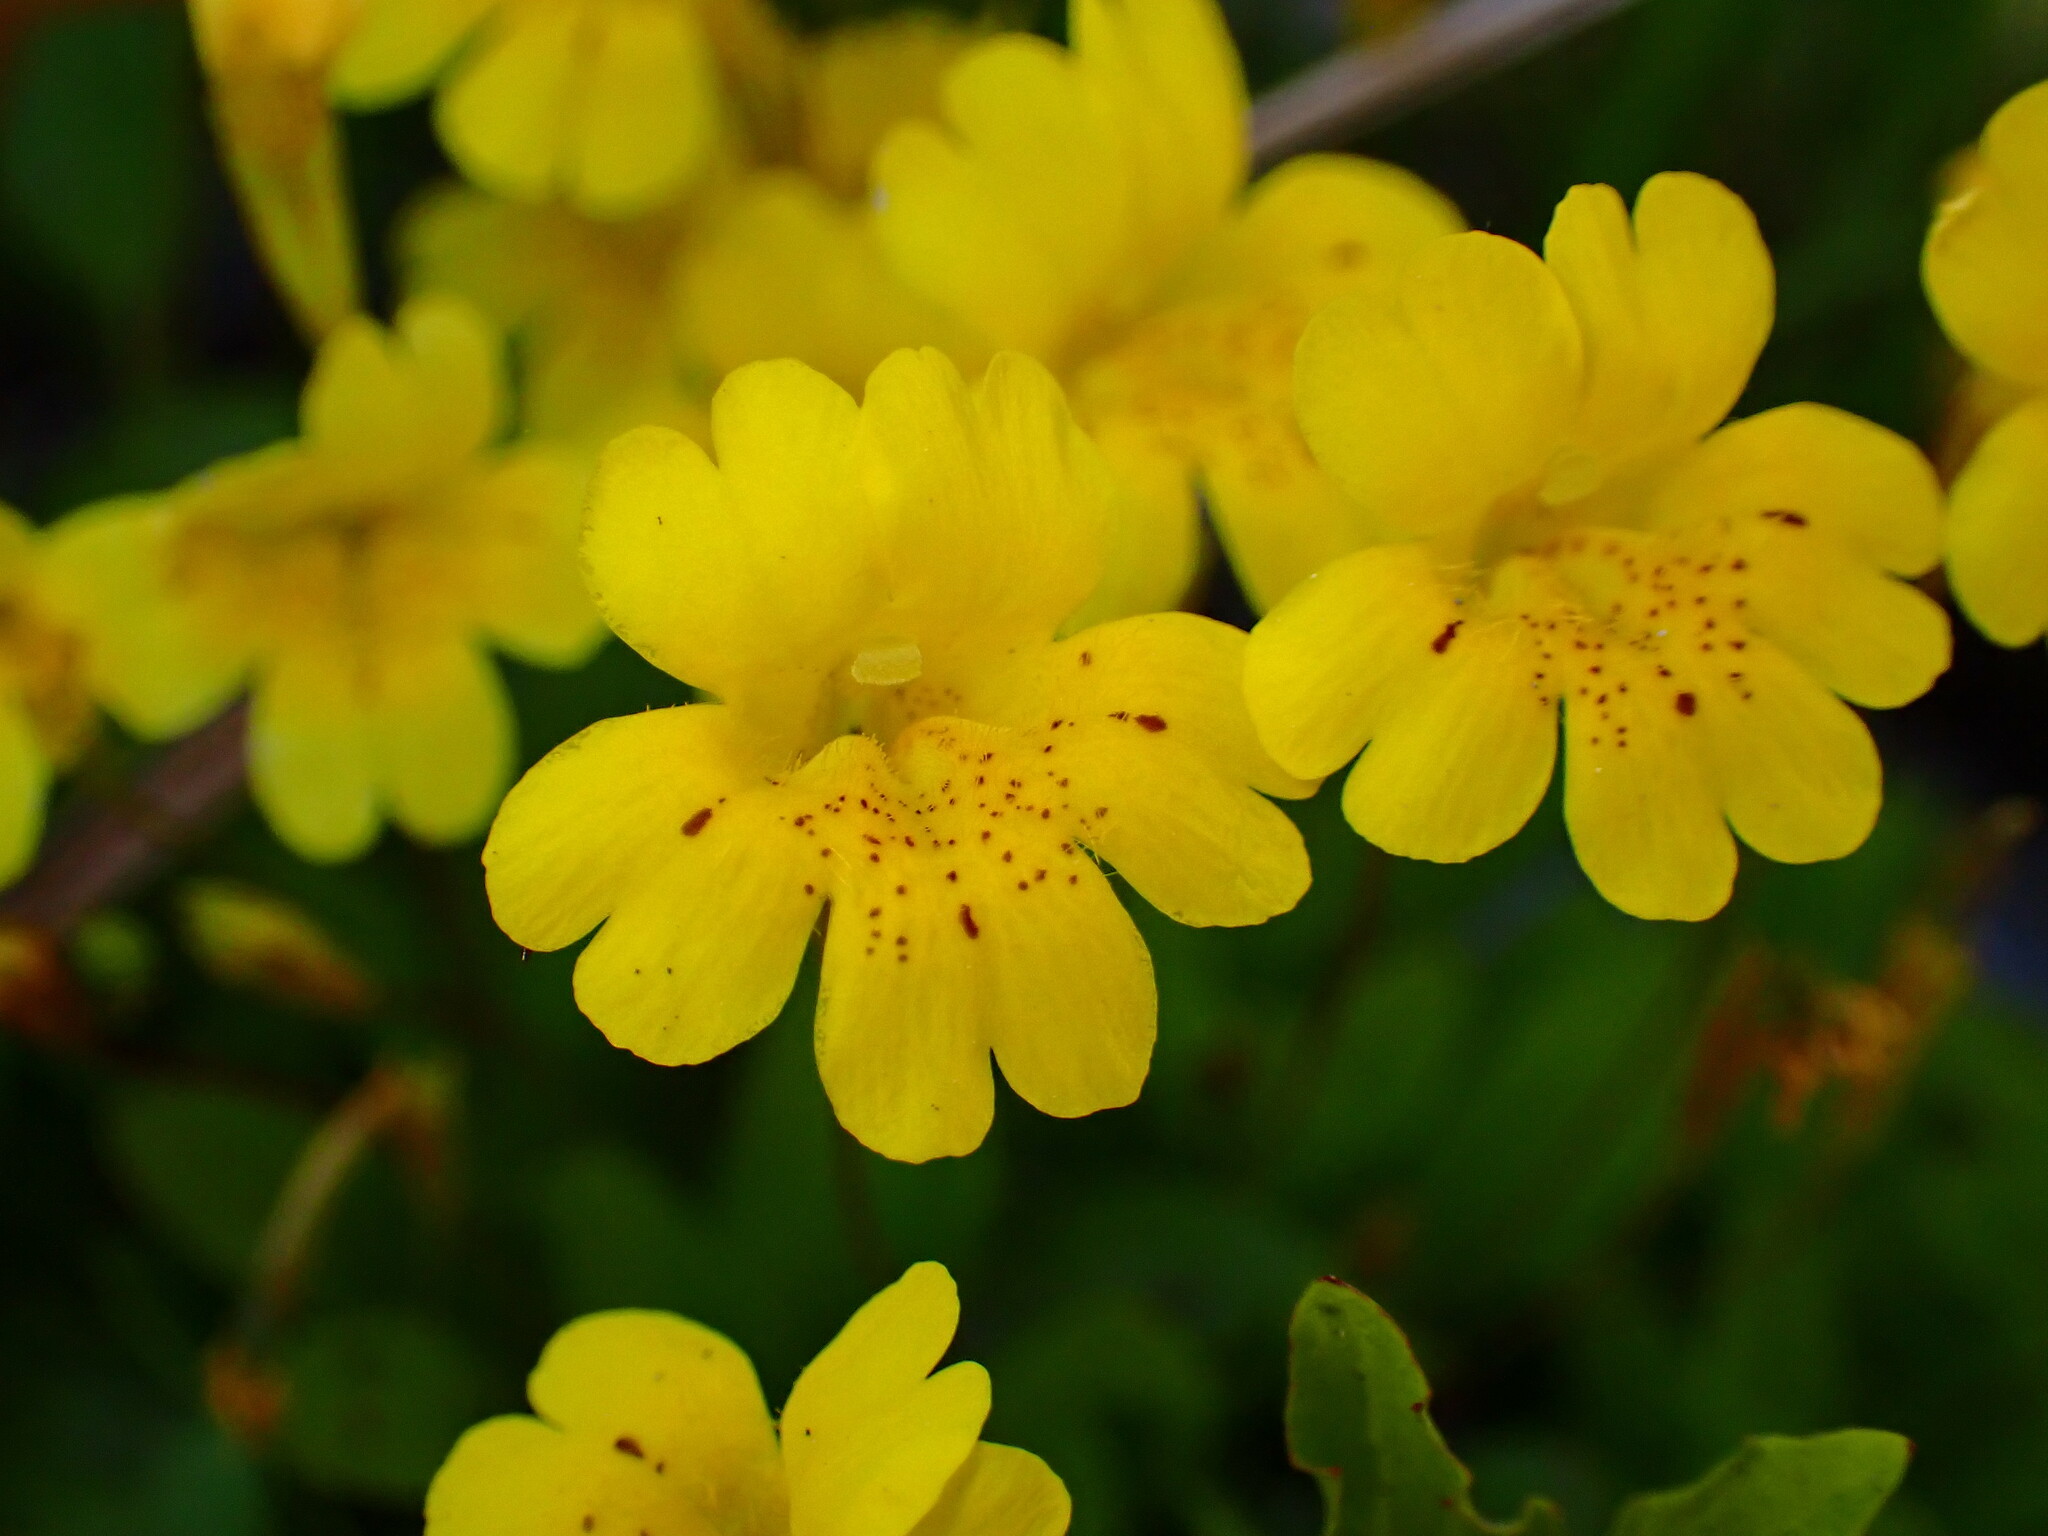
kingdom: Plantae
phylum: Tracheophyta
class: Magnoliopsida
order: Lamiales
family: Phrymaceae
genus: Erythranthe
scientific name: Erythranthe primuloides
